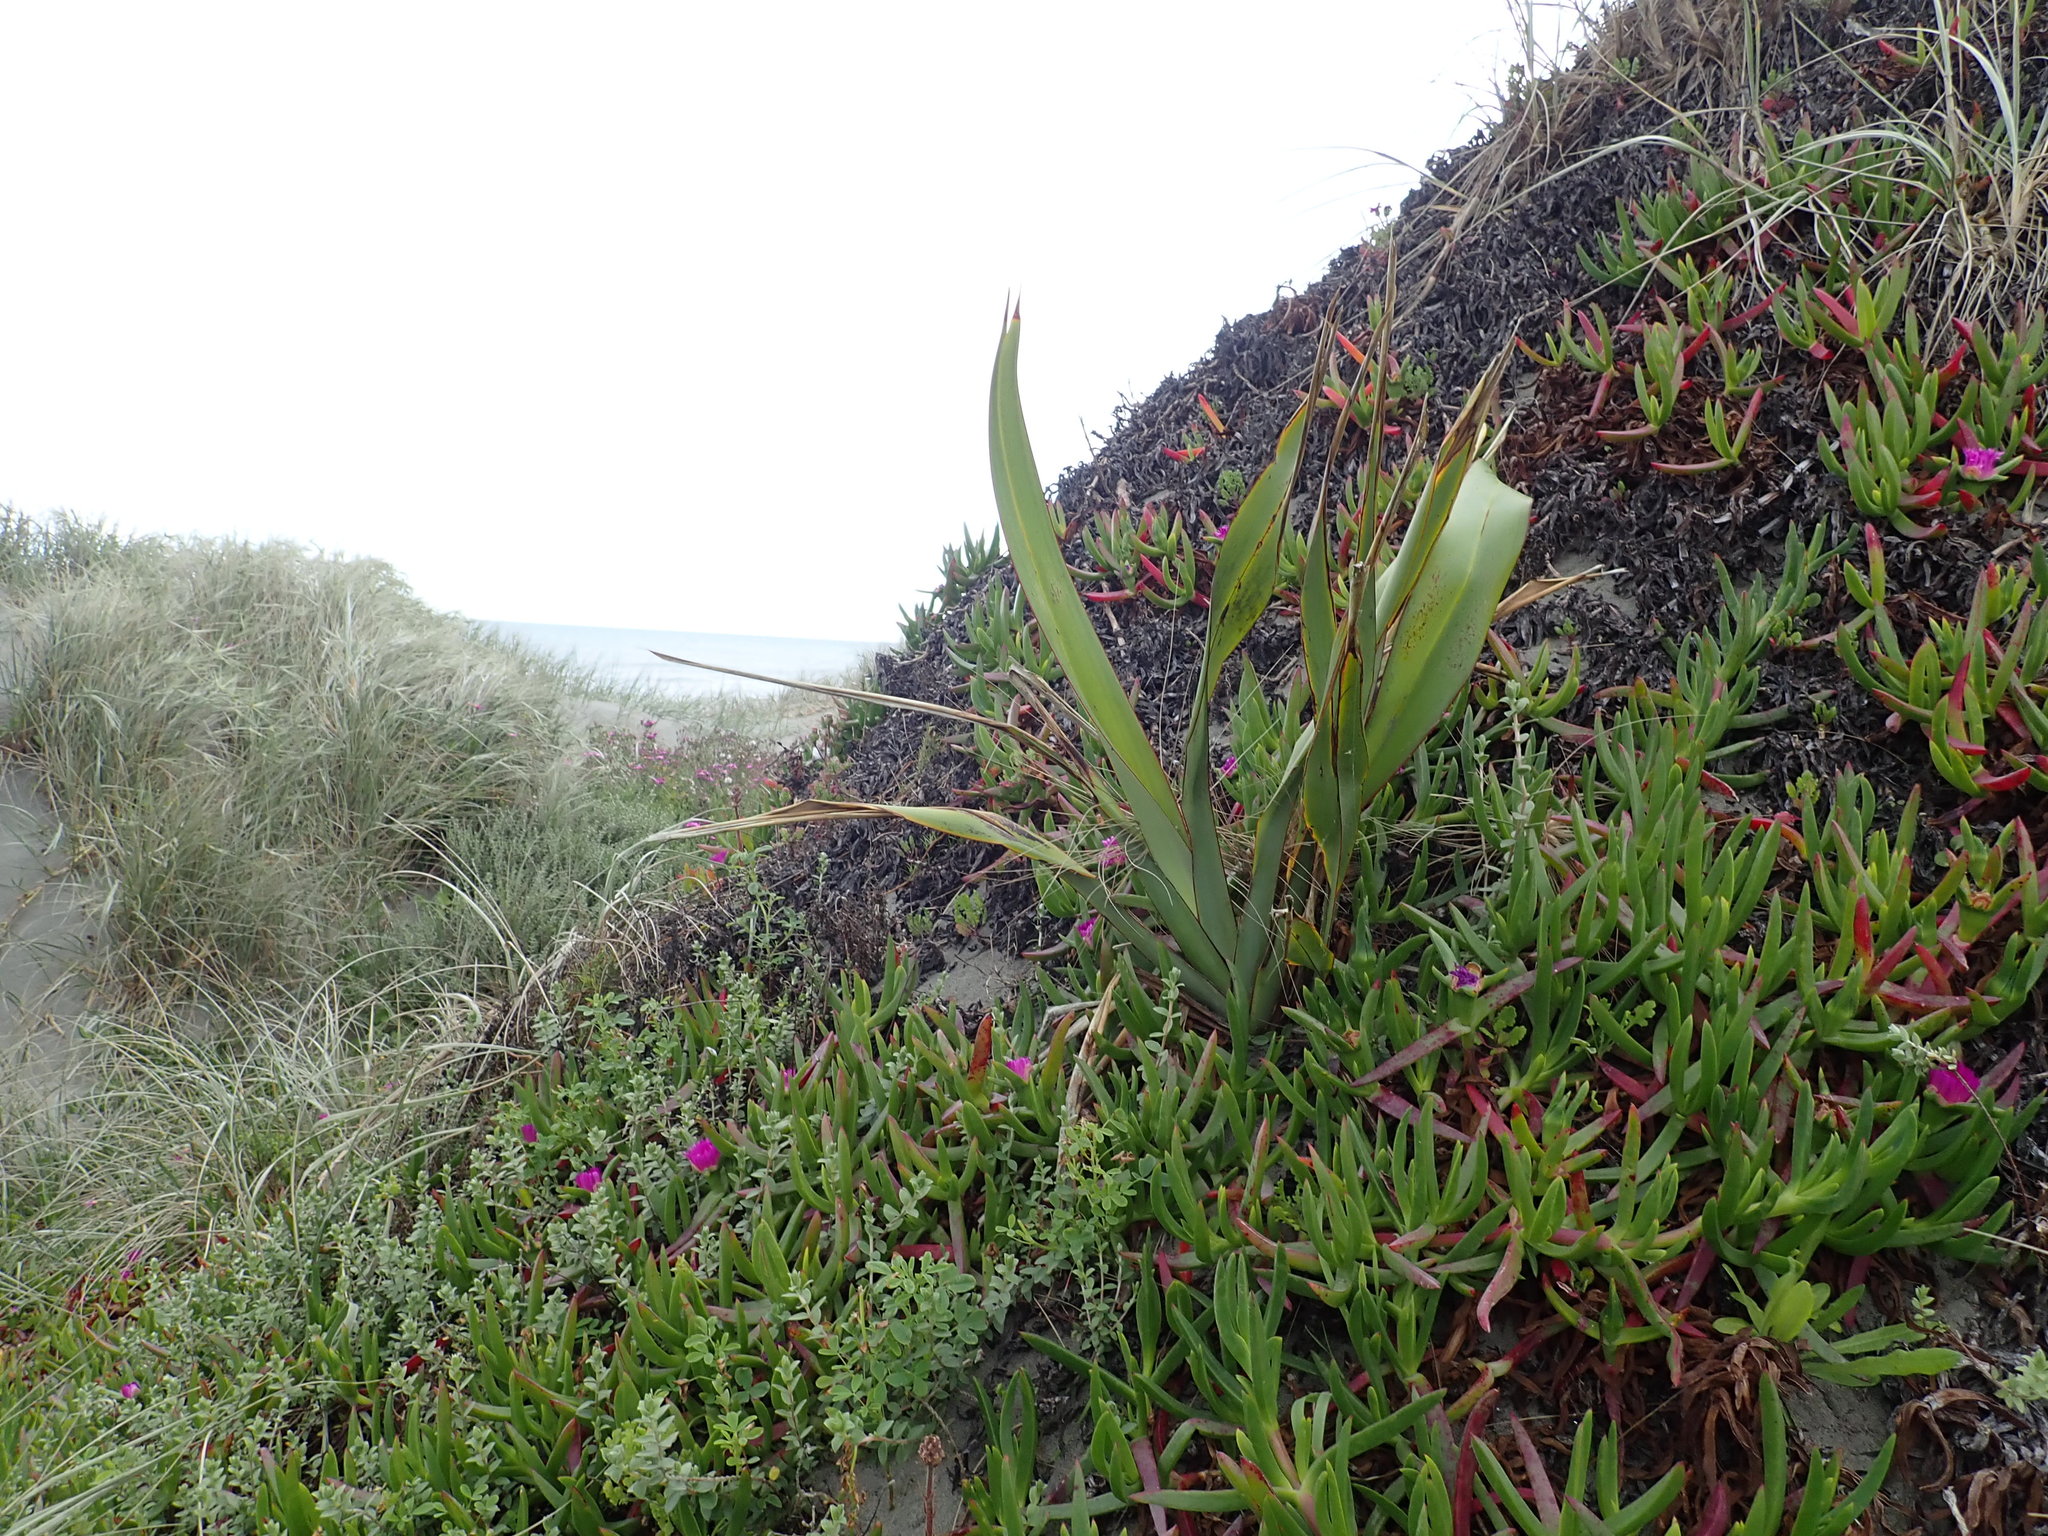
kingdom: Plantae
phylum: Tracheophyta
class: Liliopsida
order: Asparagales
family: Asphodelaceae
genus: Phormium
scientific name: Phormium tenax
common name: New zealand flax
